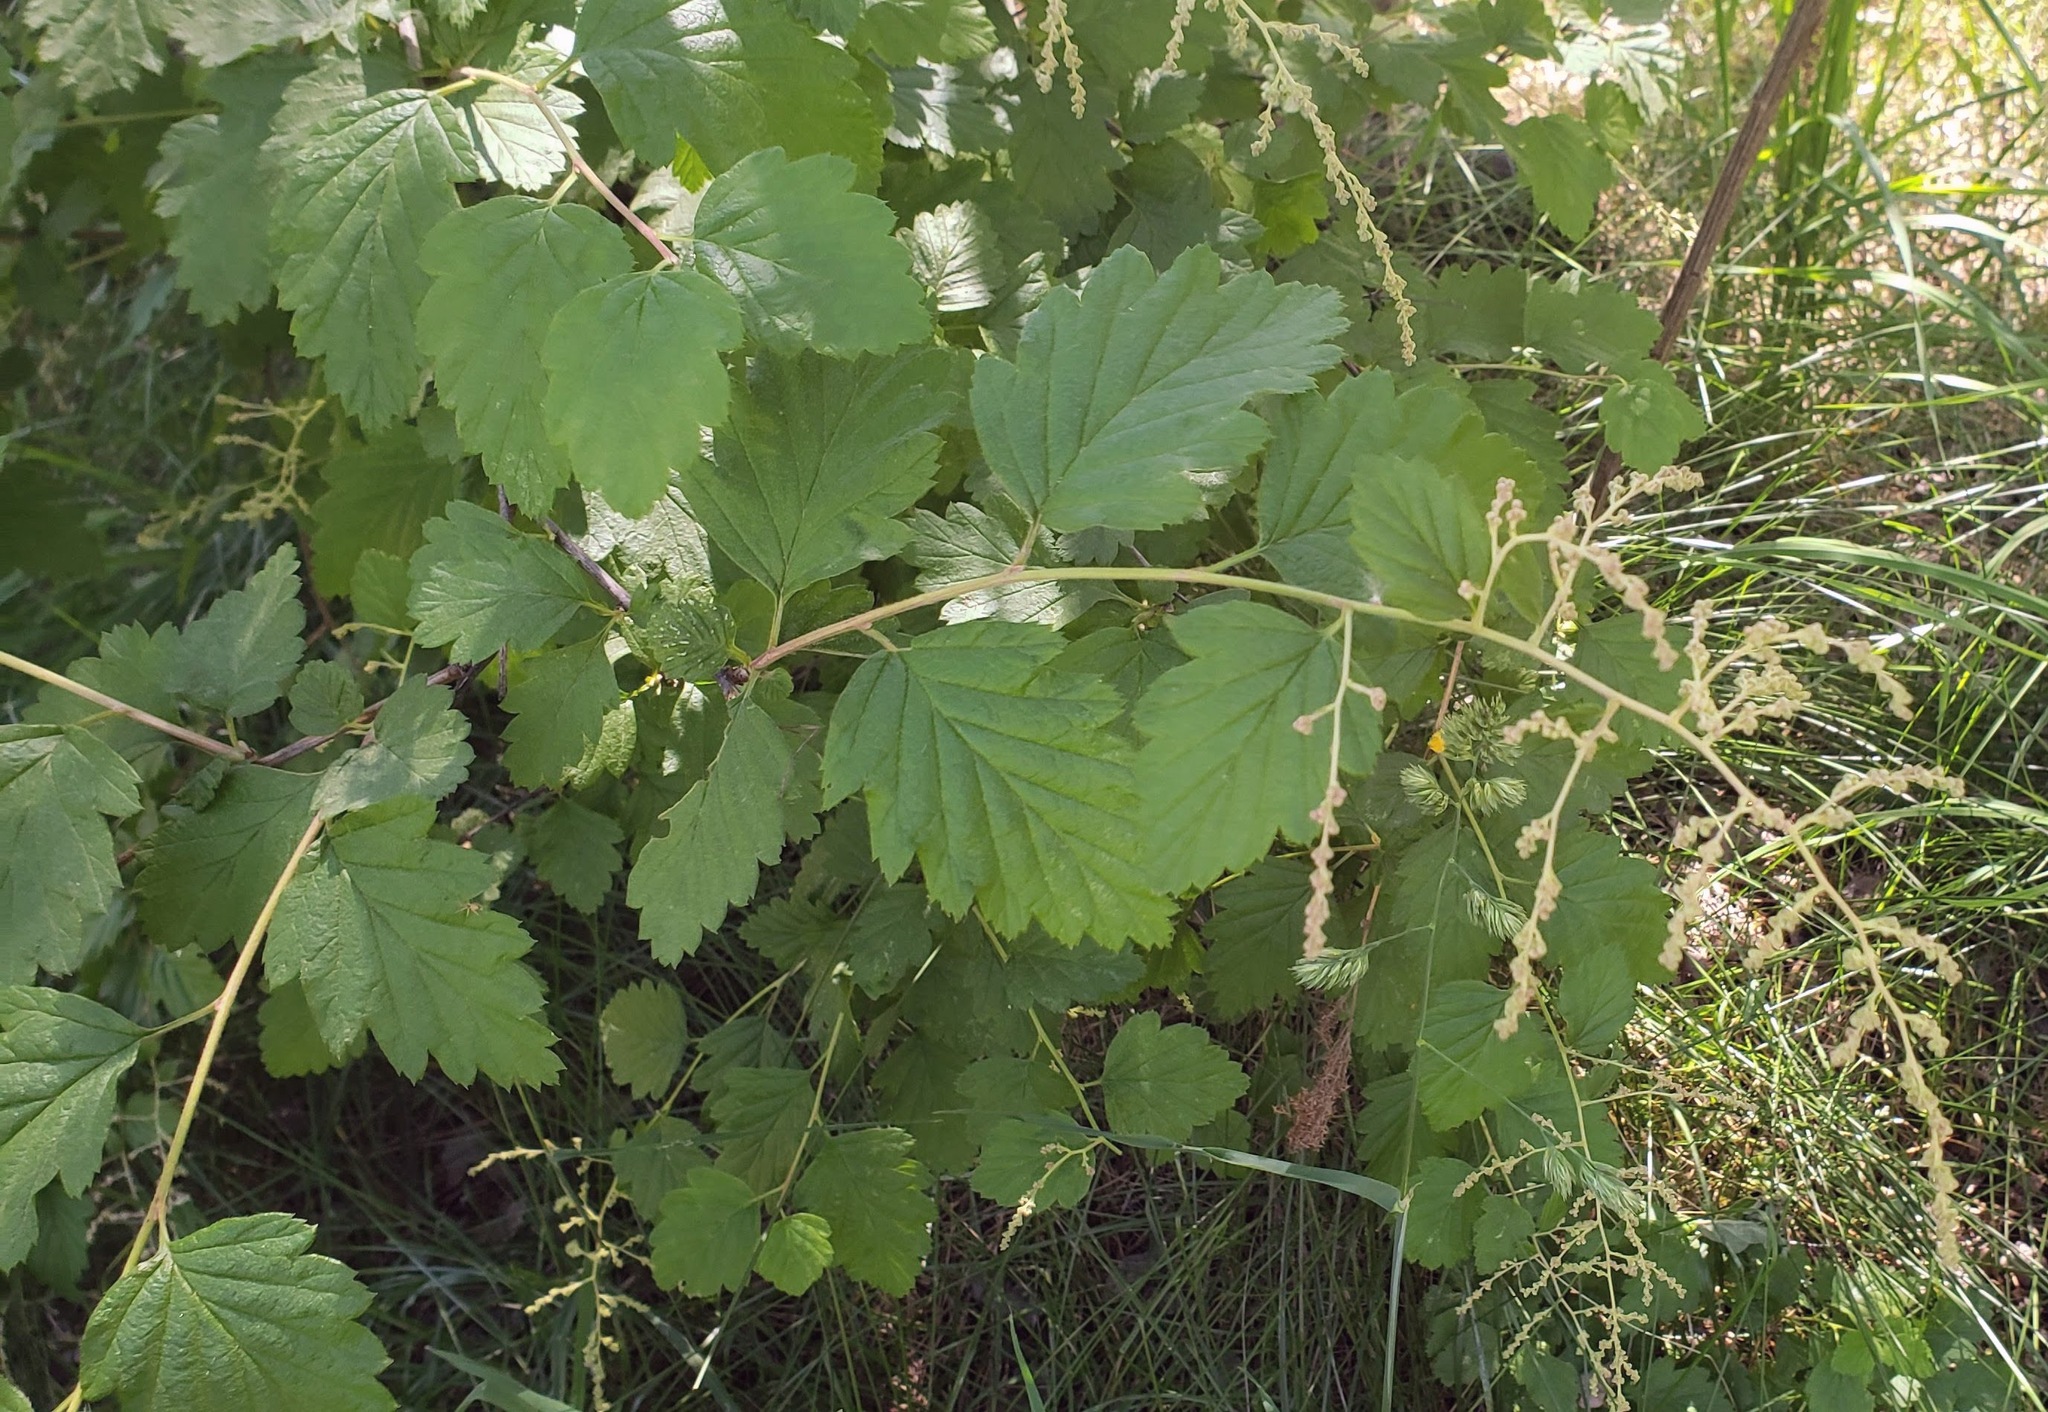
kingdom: Plantae
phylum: Tracheophyta
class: Magnoliopsida
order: Rosales
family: Rosaceae
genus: Holodiscus
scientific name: Holodiscus discolor
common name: Oceanspray
